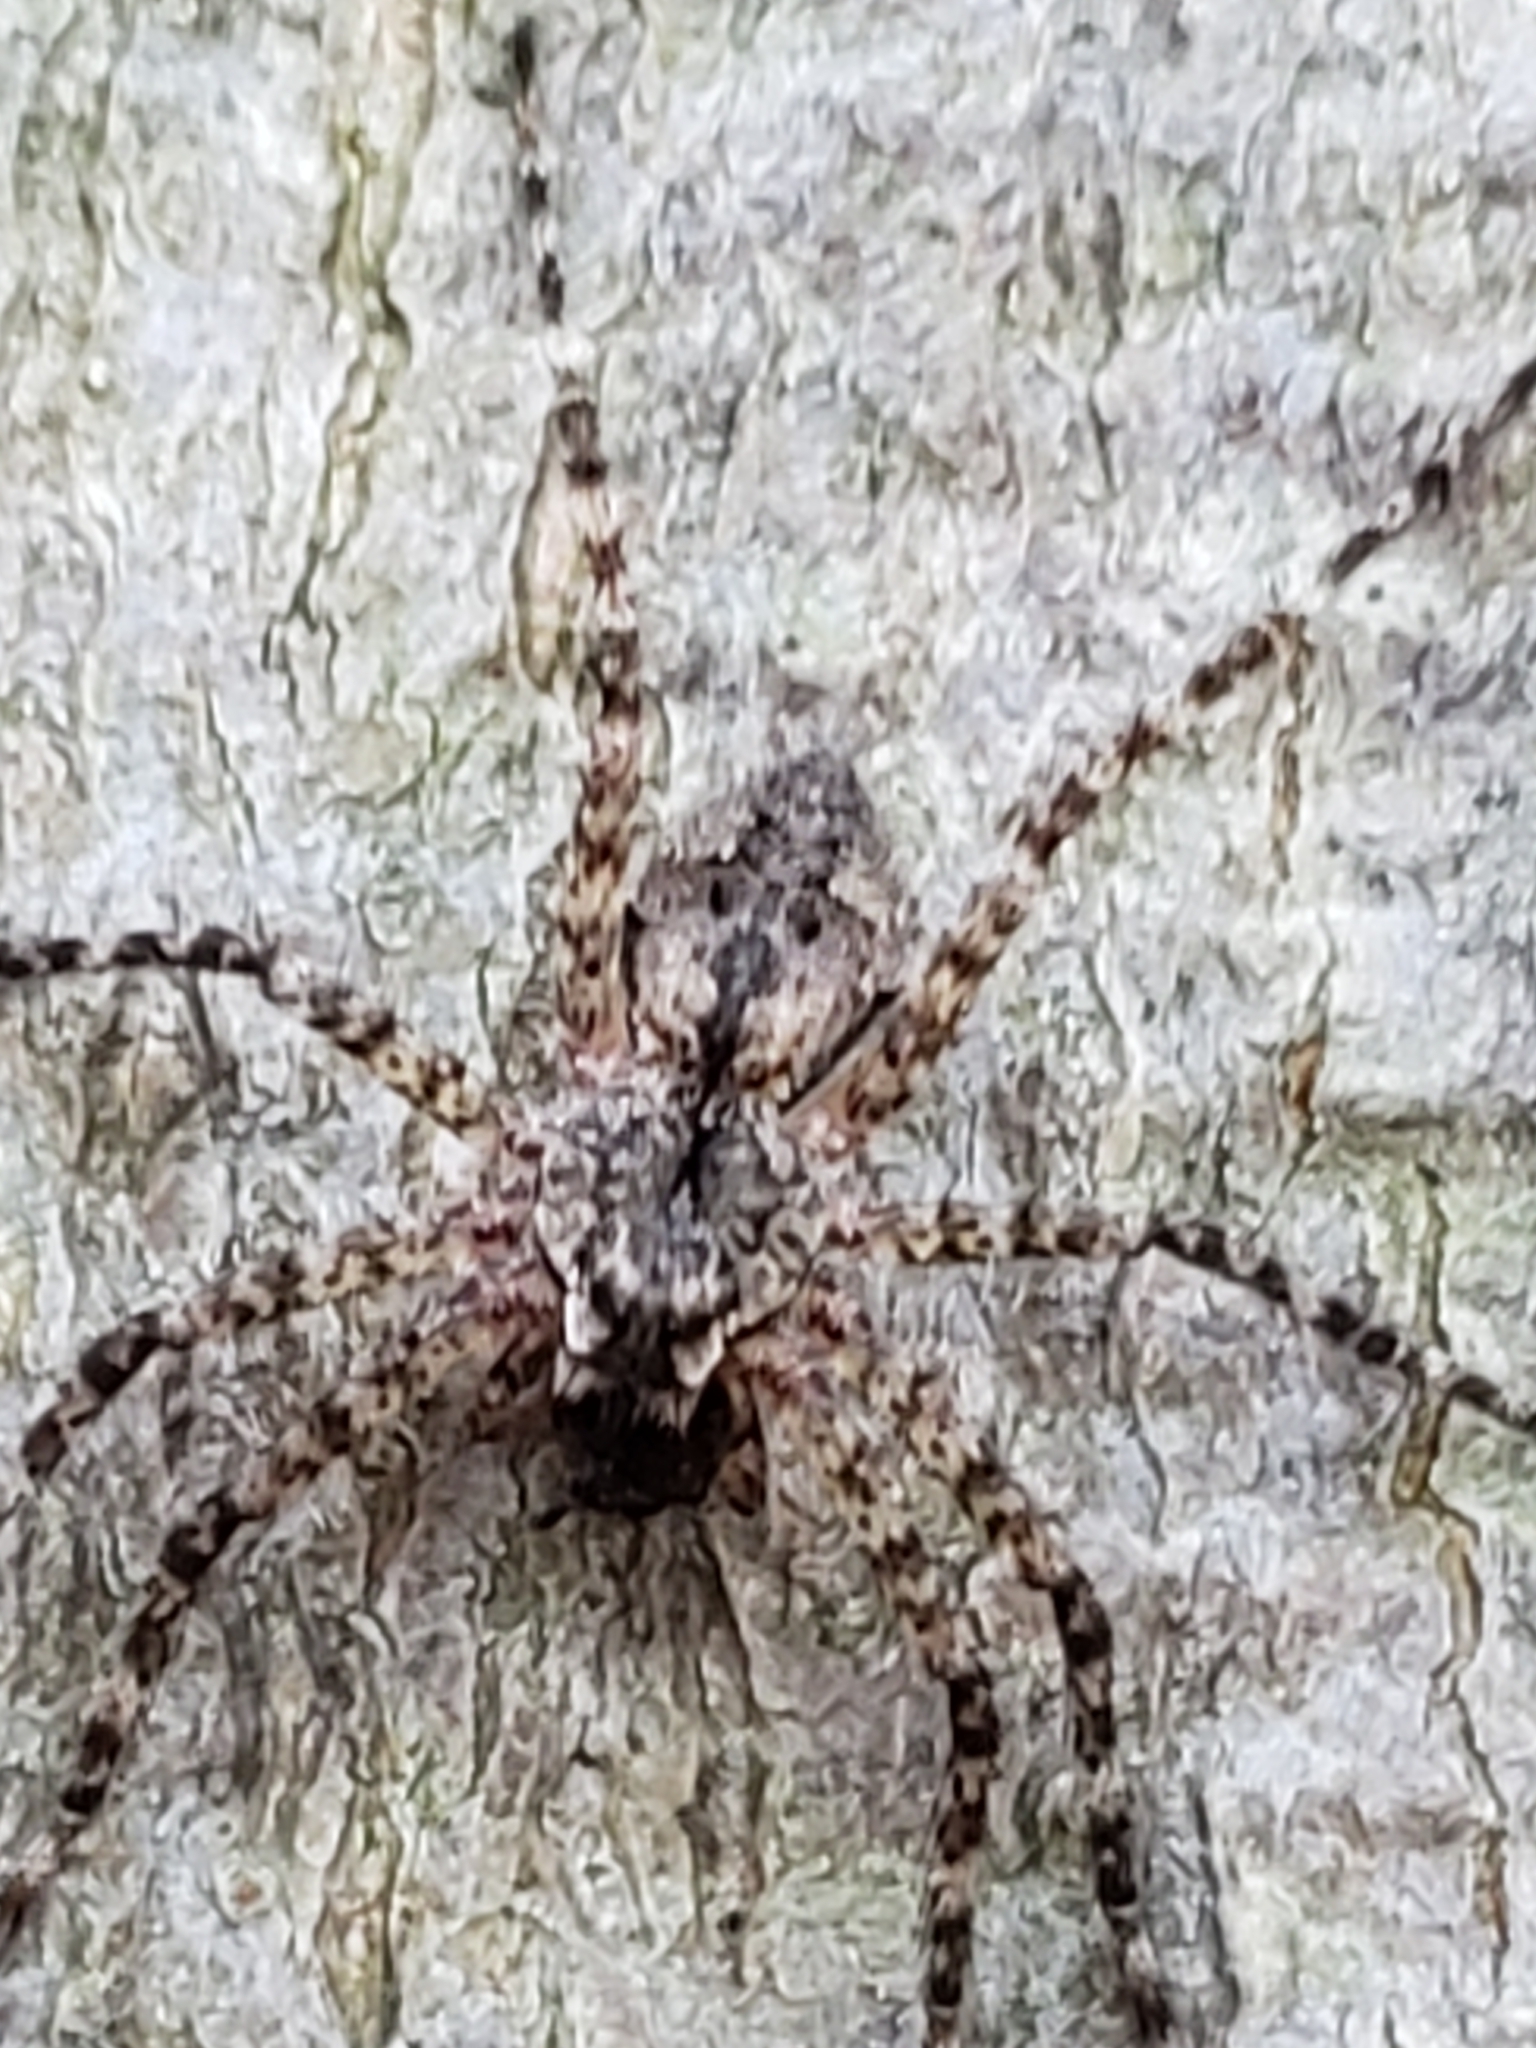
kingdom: Animalia
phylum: Arthropoda
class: Arachnida
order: Araneae
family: Pisauridae
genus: Dolomedes
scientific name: Dolomedes albineus
